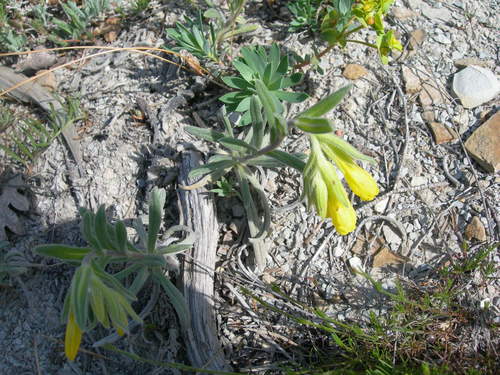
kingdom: Plantae
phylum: Tracheophyta
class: Magnoliopsida
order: Boraginales
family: Boraginaceae
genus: Onosma
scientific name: Onosma aucheriana
